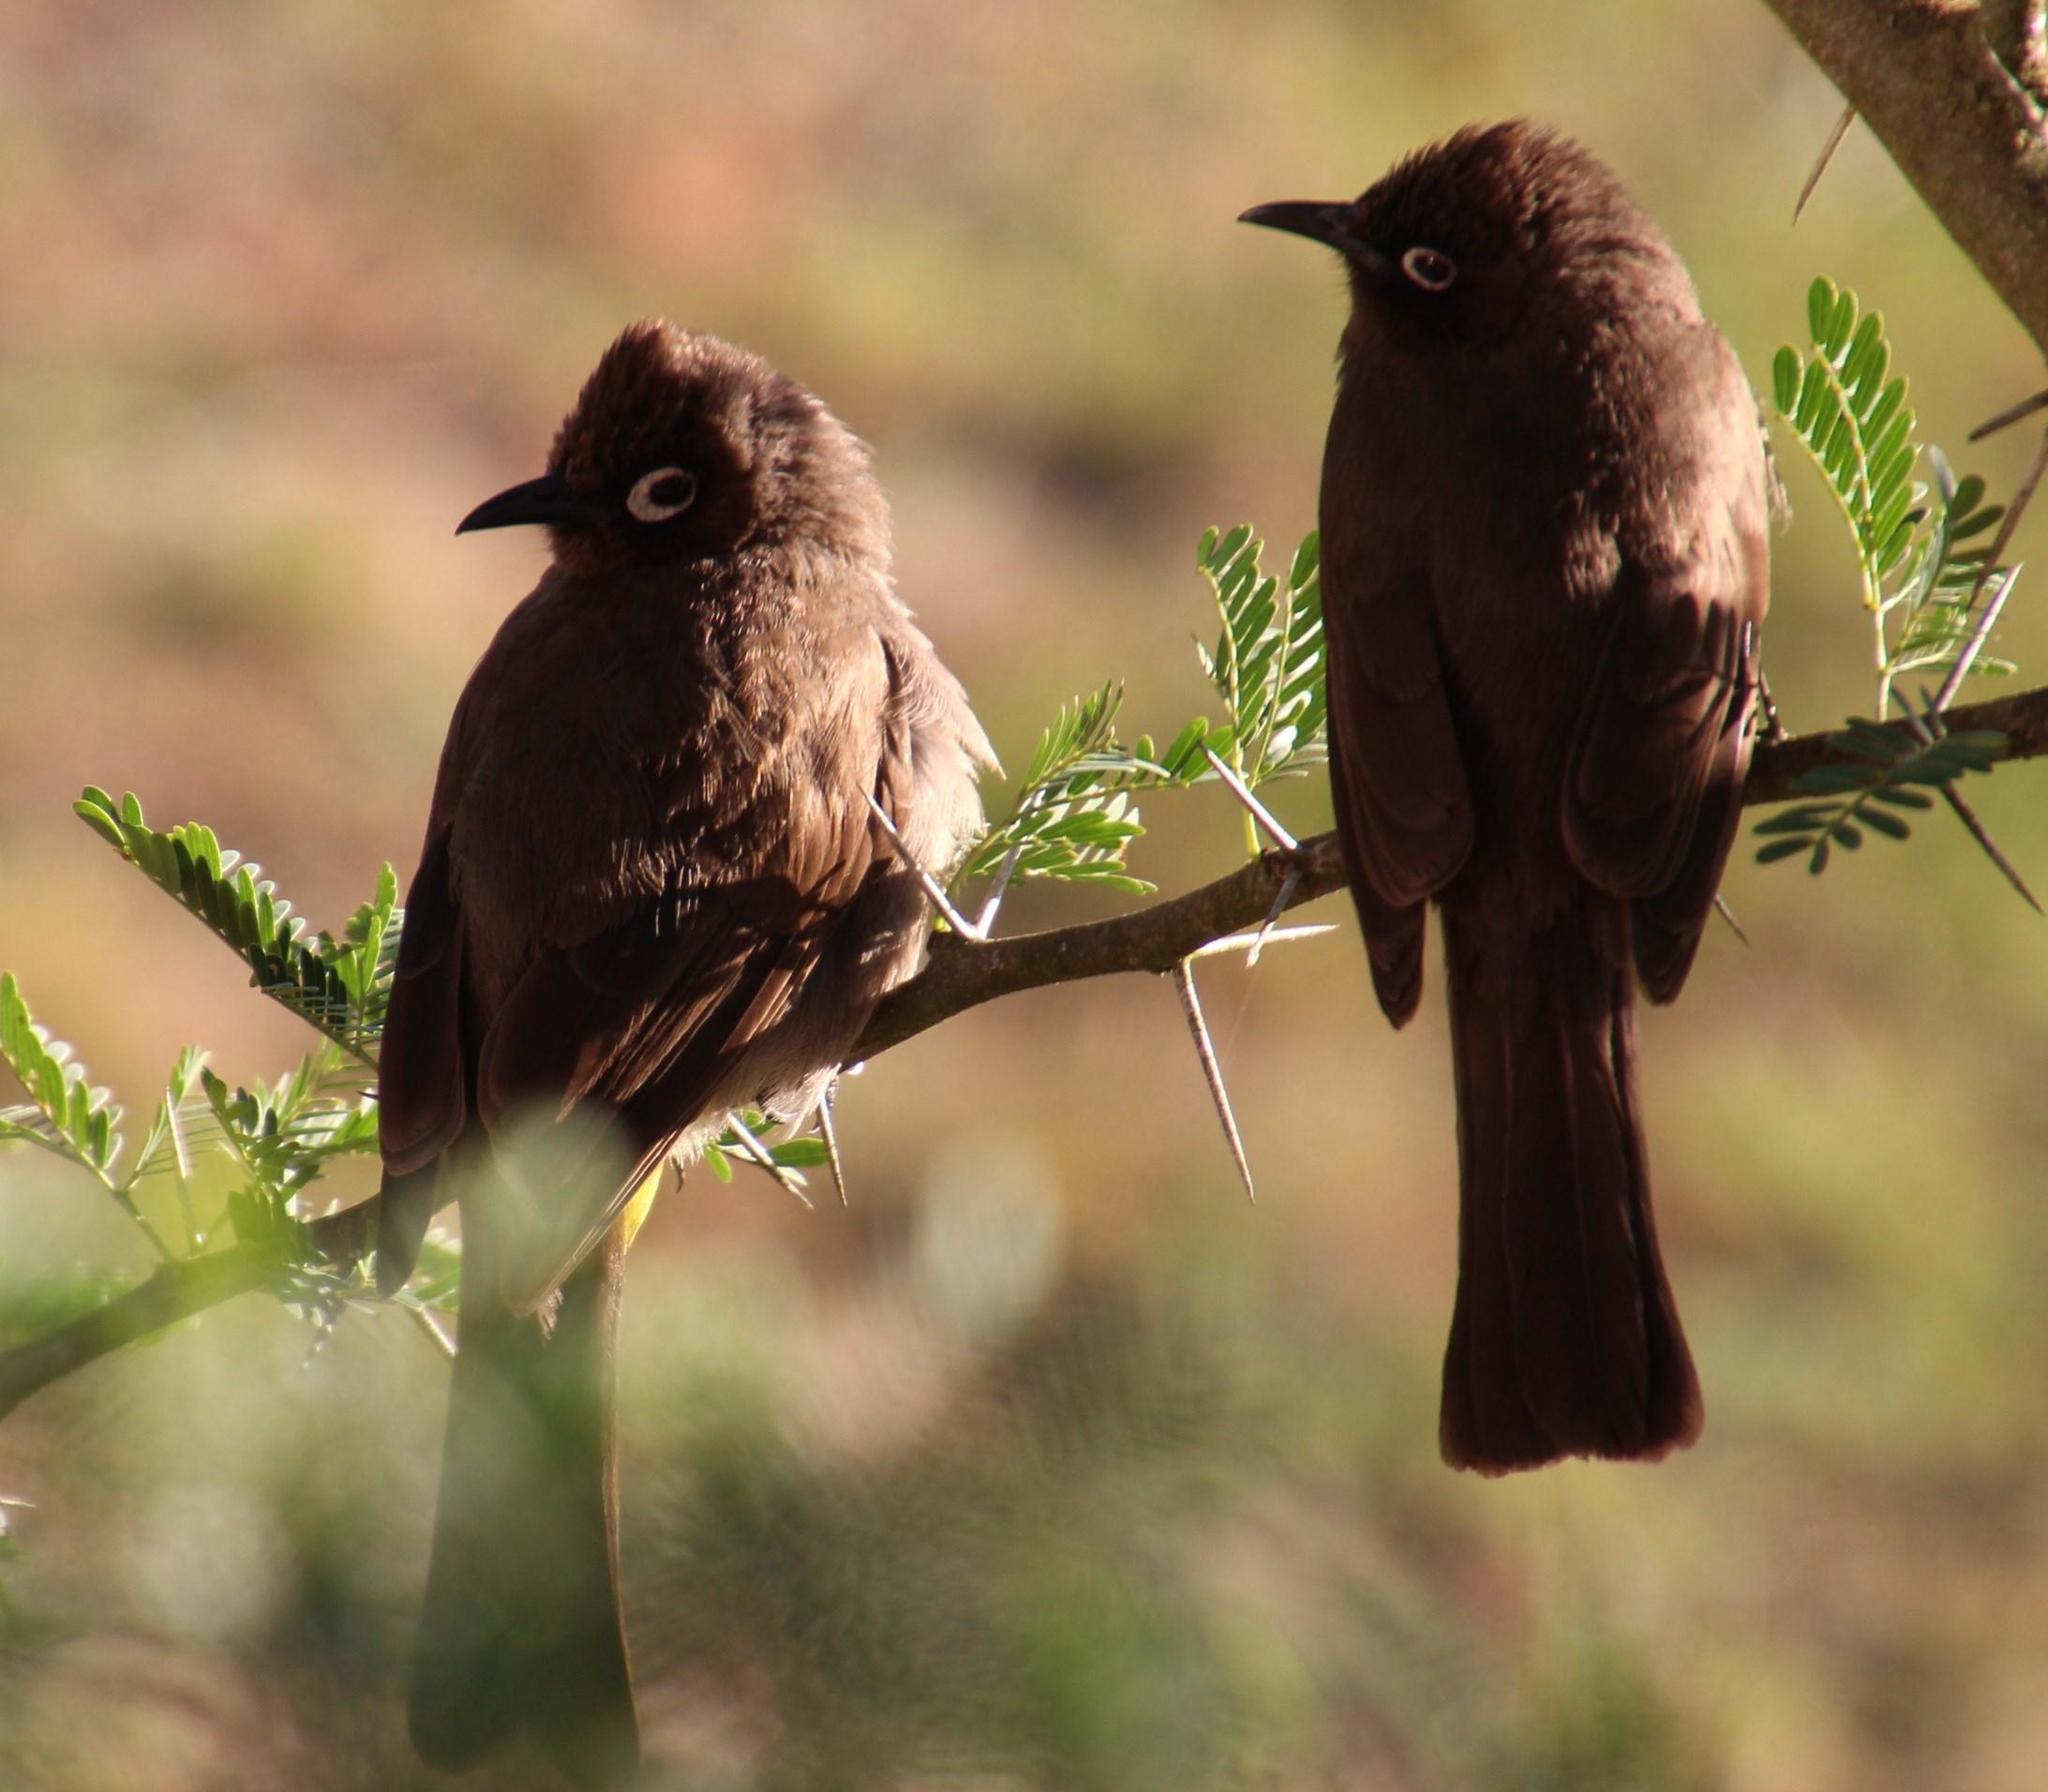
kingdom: Animalia
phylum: Chordata
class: Aves
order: Passeriformes
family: Pycnonotidae
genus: Pycnonotus
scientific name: Pycnonotus capensis
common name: Cape bulbul
